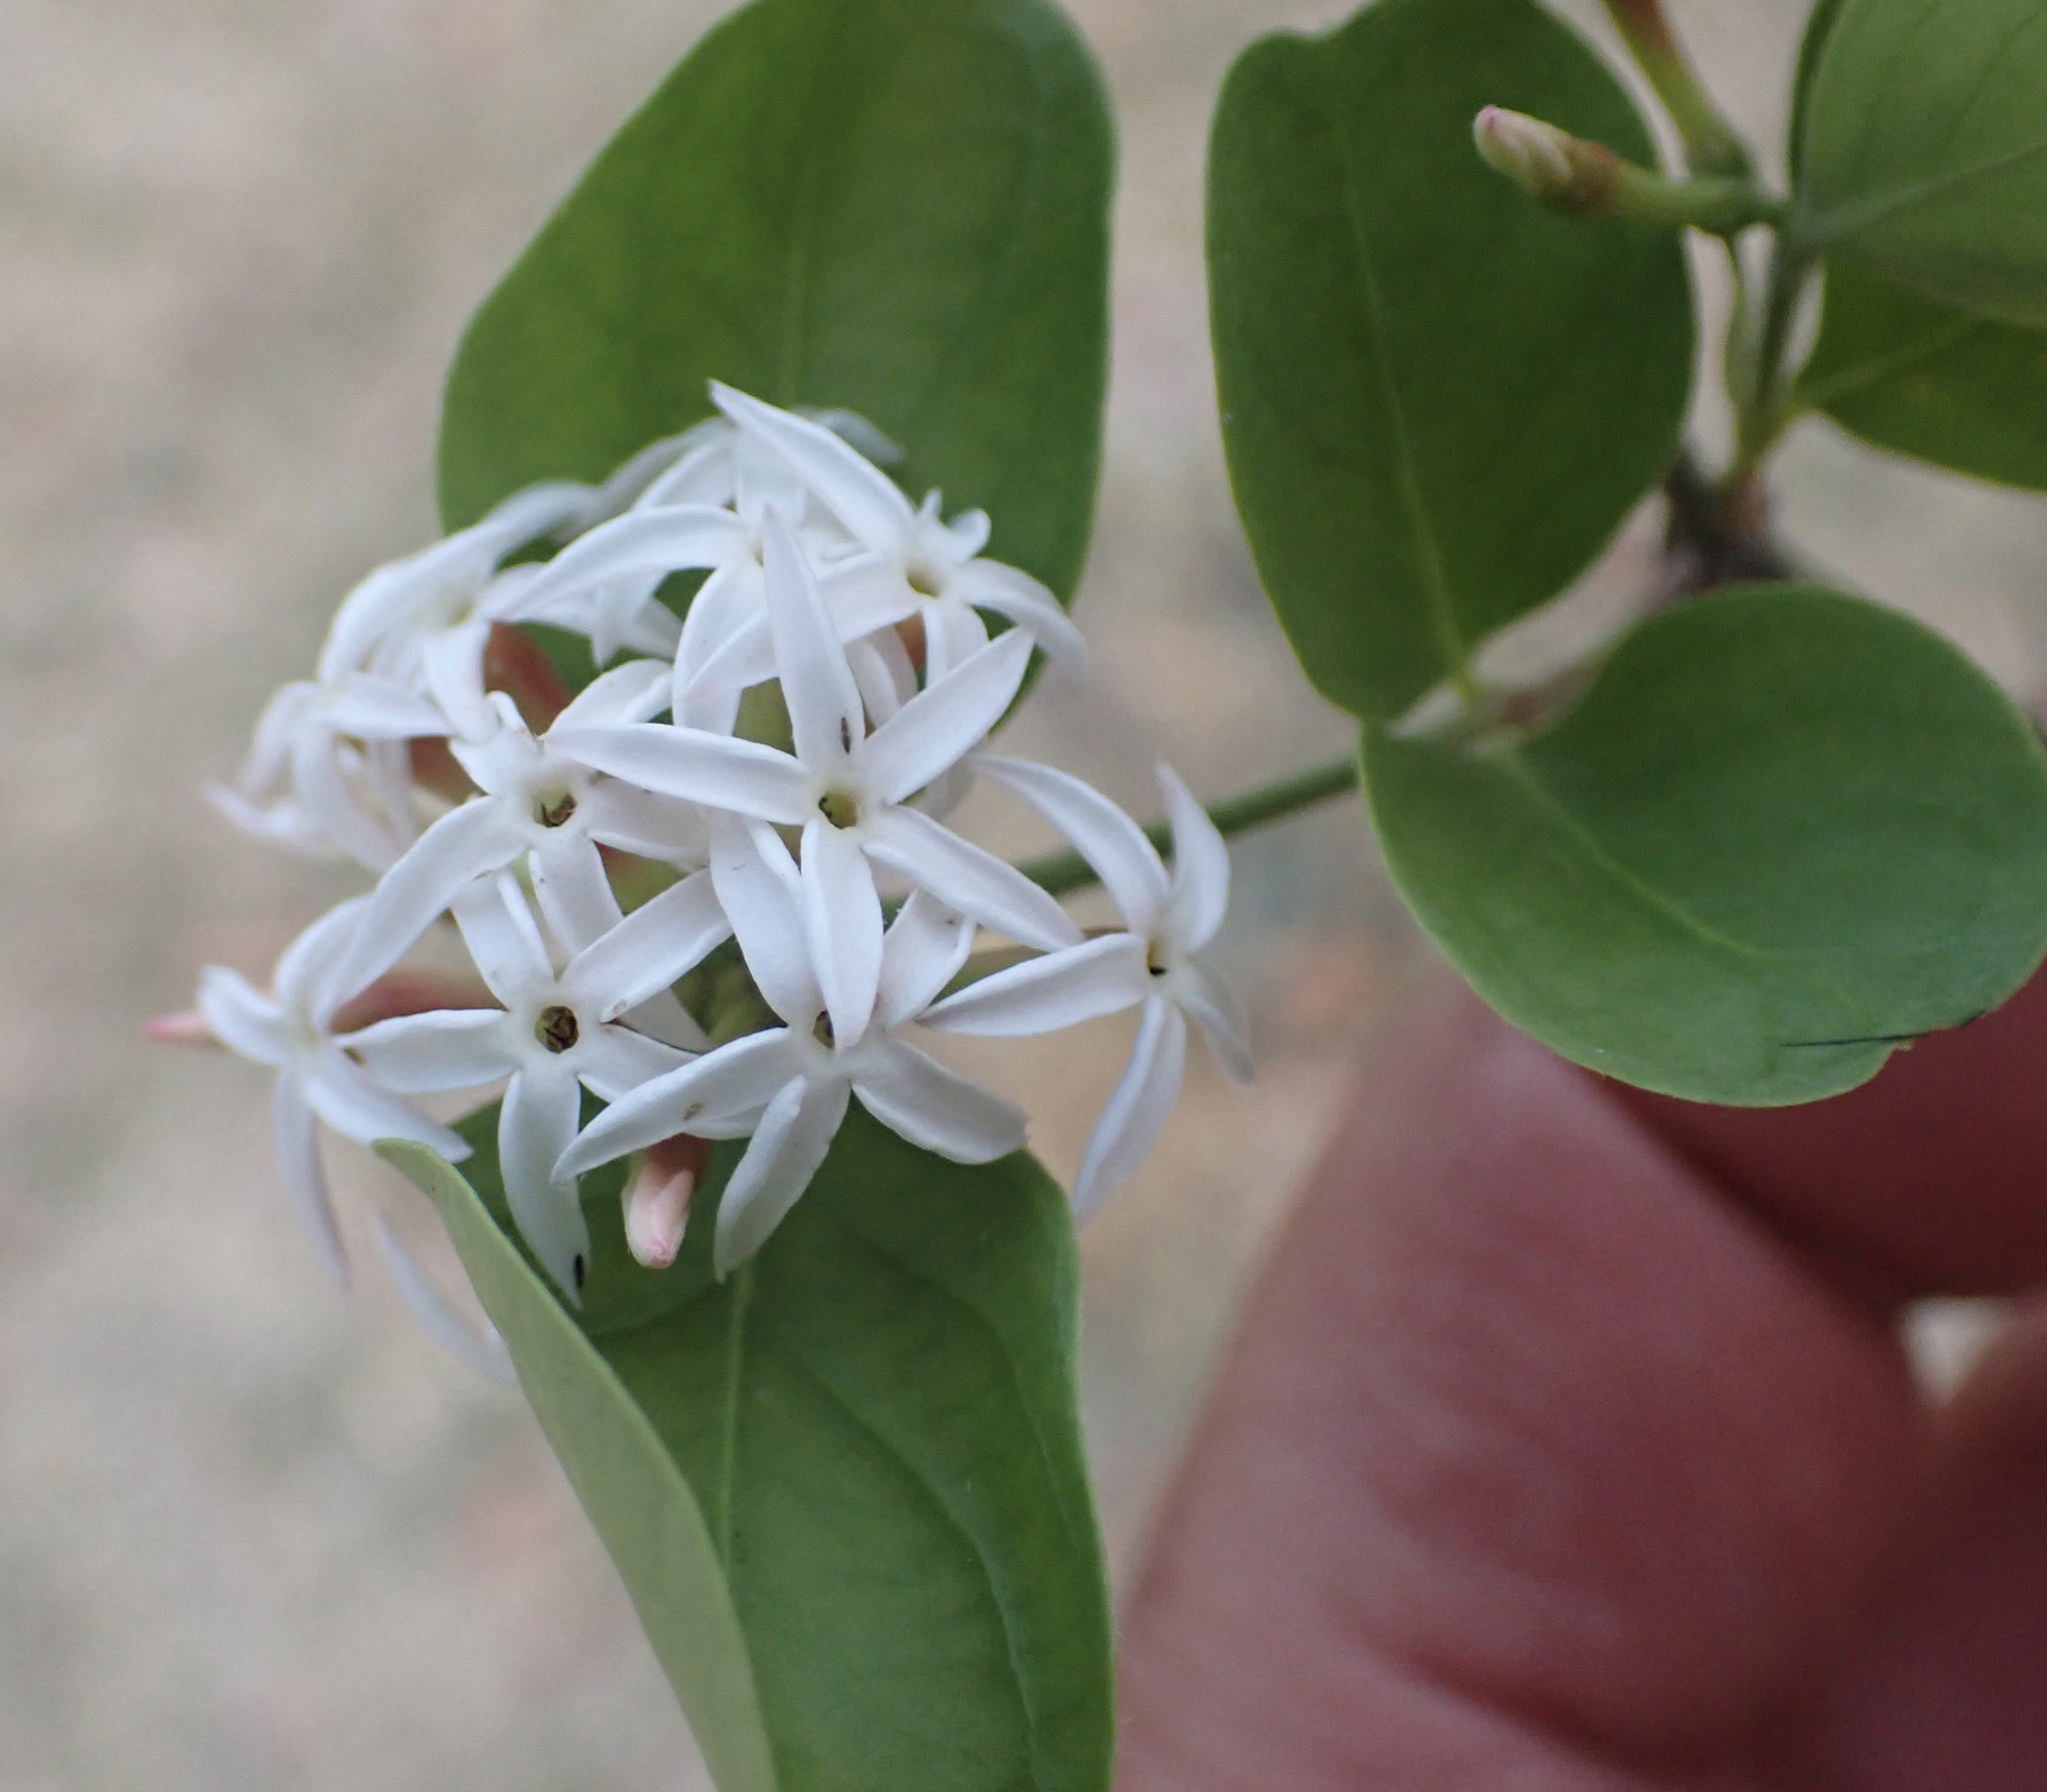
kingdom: Plantae
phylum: Tracheophyta
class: Magnoliopsida
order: Gentianales
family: Apocynaceae
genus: Carissa
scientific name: Carissa spinarum
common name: Egyptian carissa
